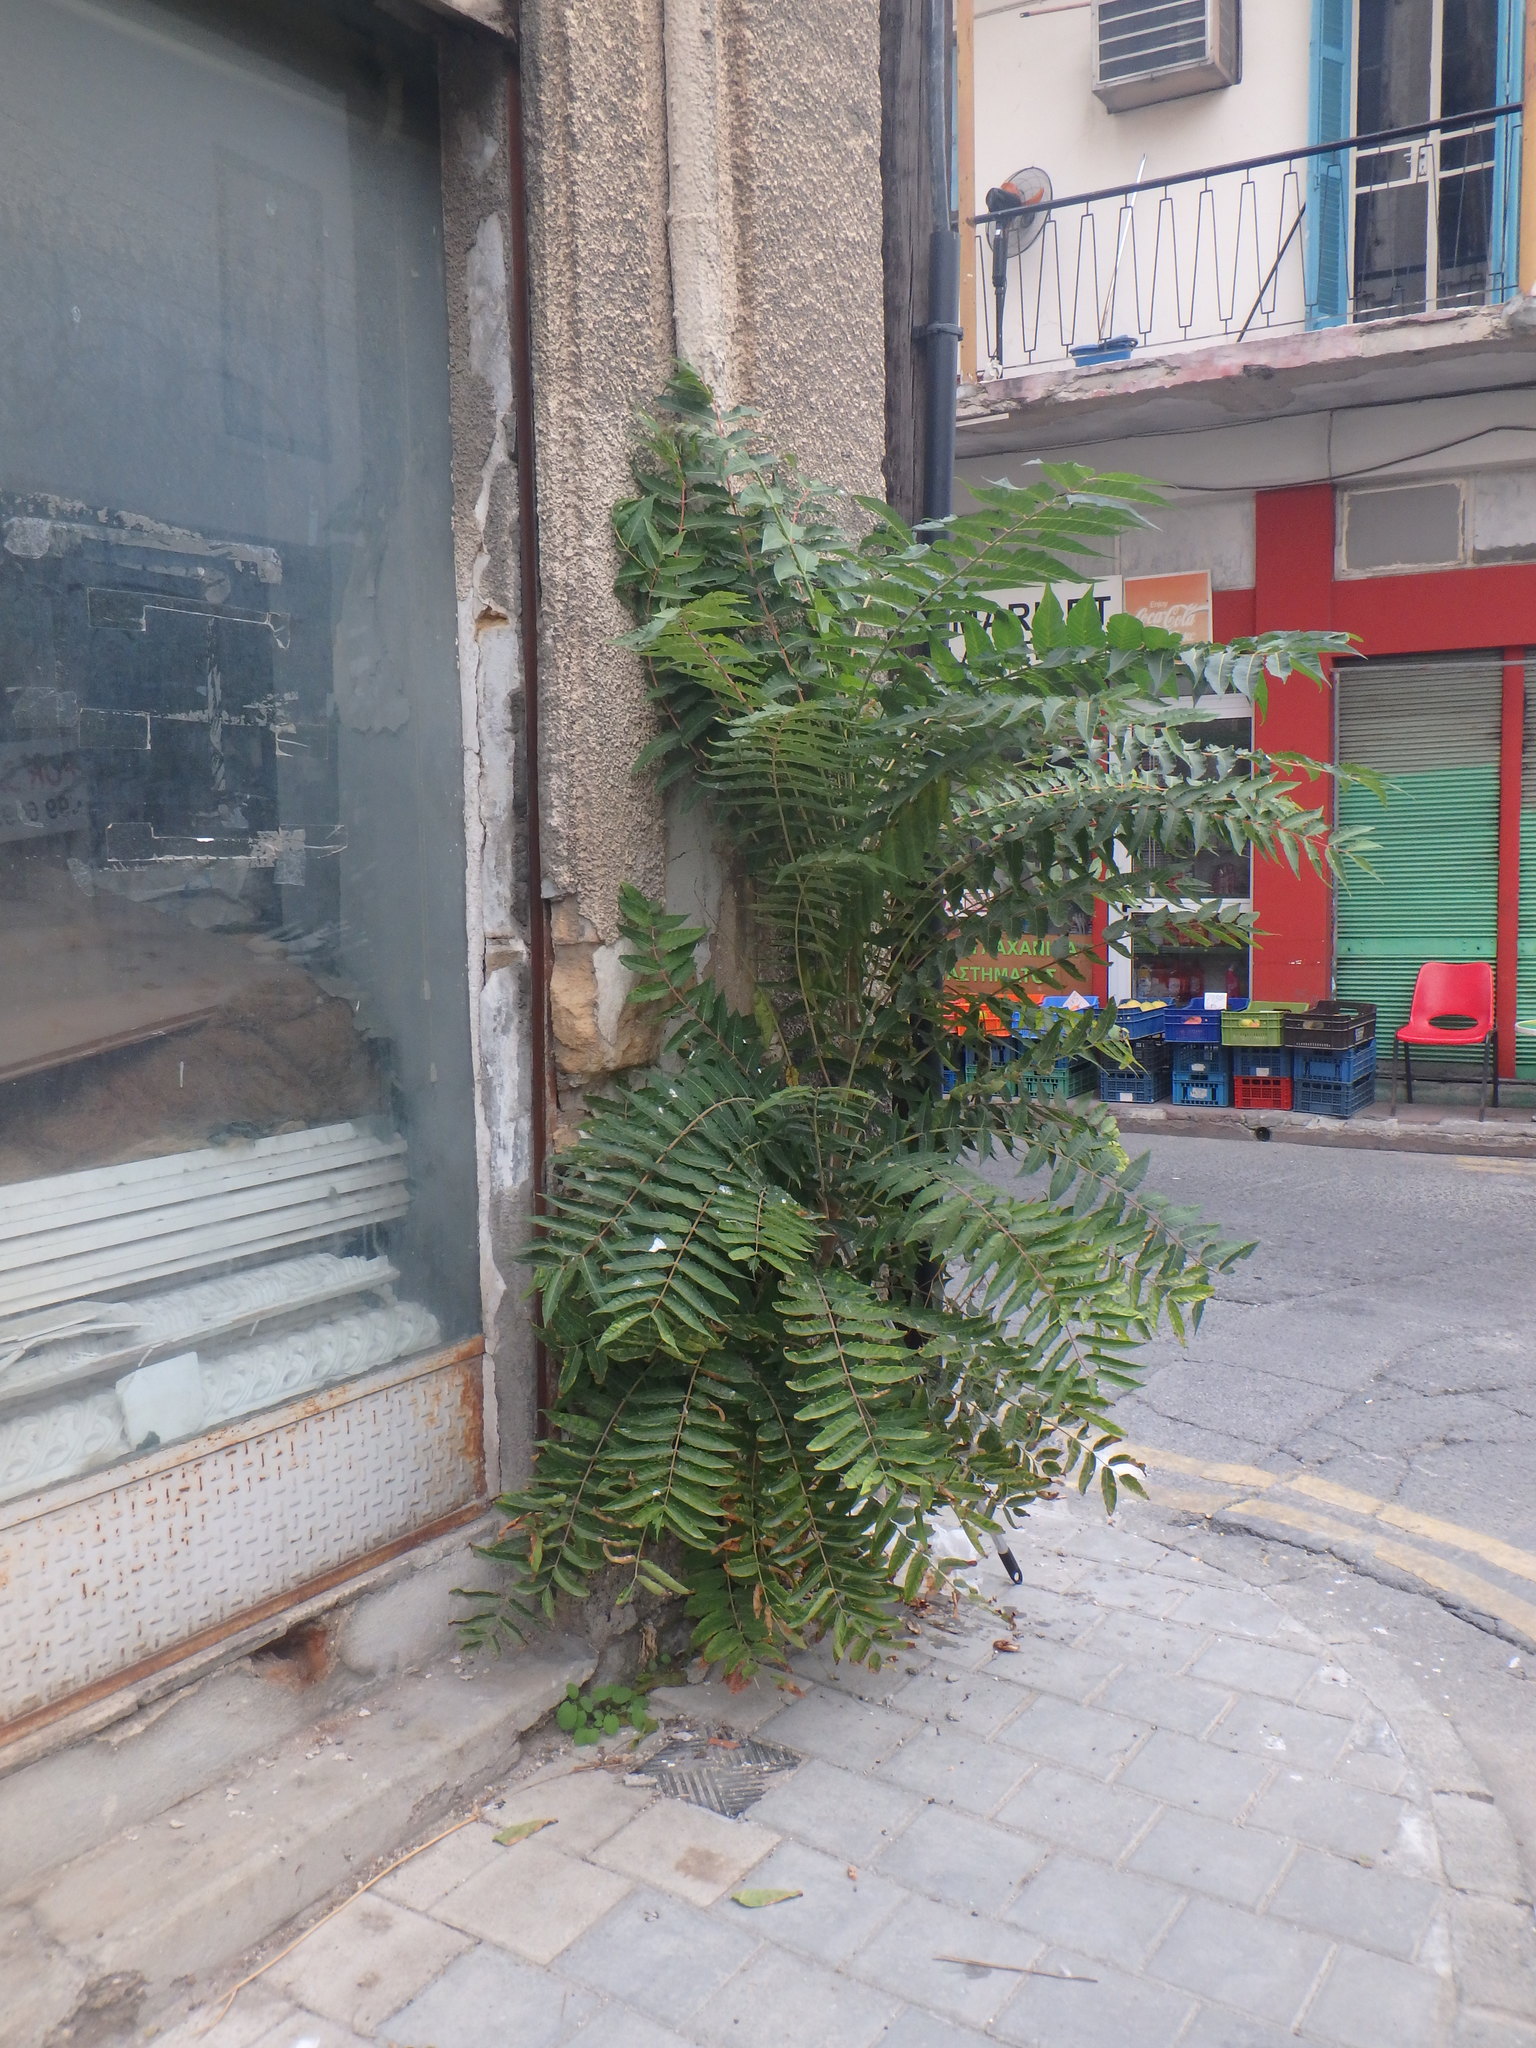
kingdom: Plantae
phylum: Tracheophyta
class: Magnoliopsida
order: Sapindales
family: Simaroubaceae
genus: Ailanthus
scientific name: Ailanthus altissima
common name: Tree-of-heaven
